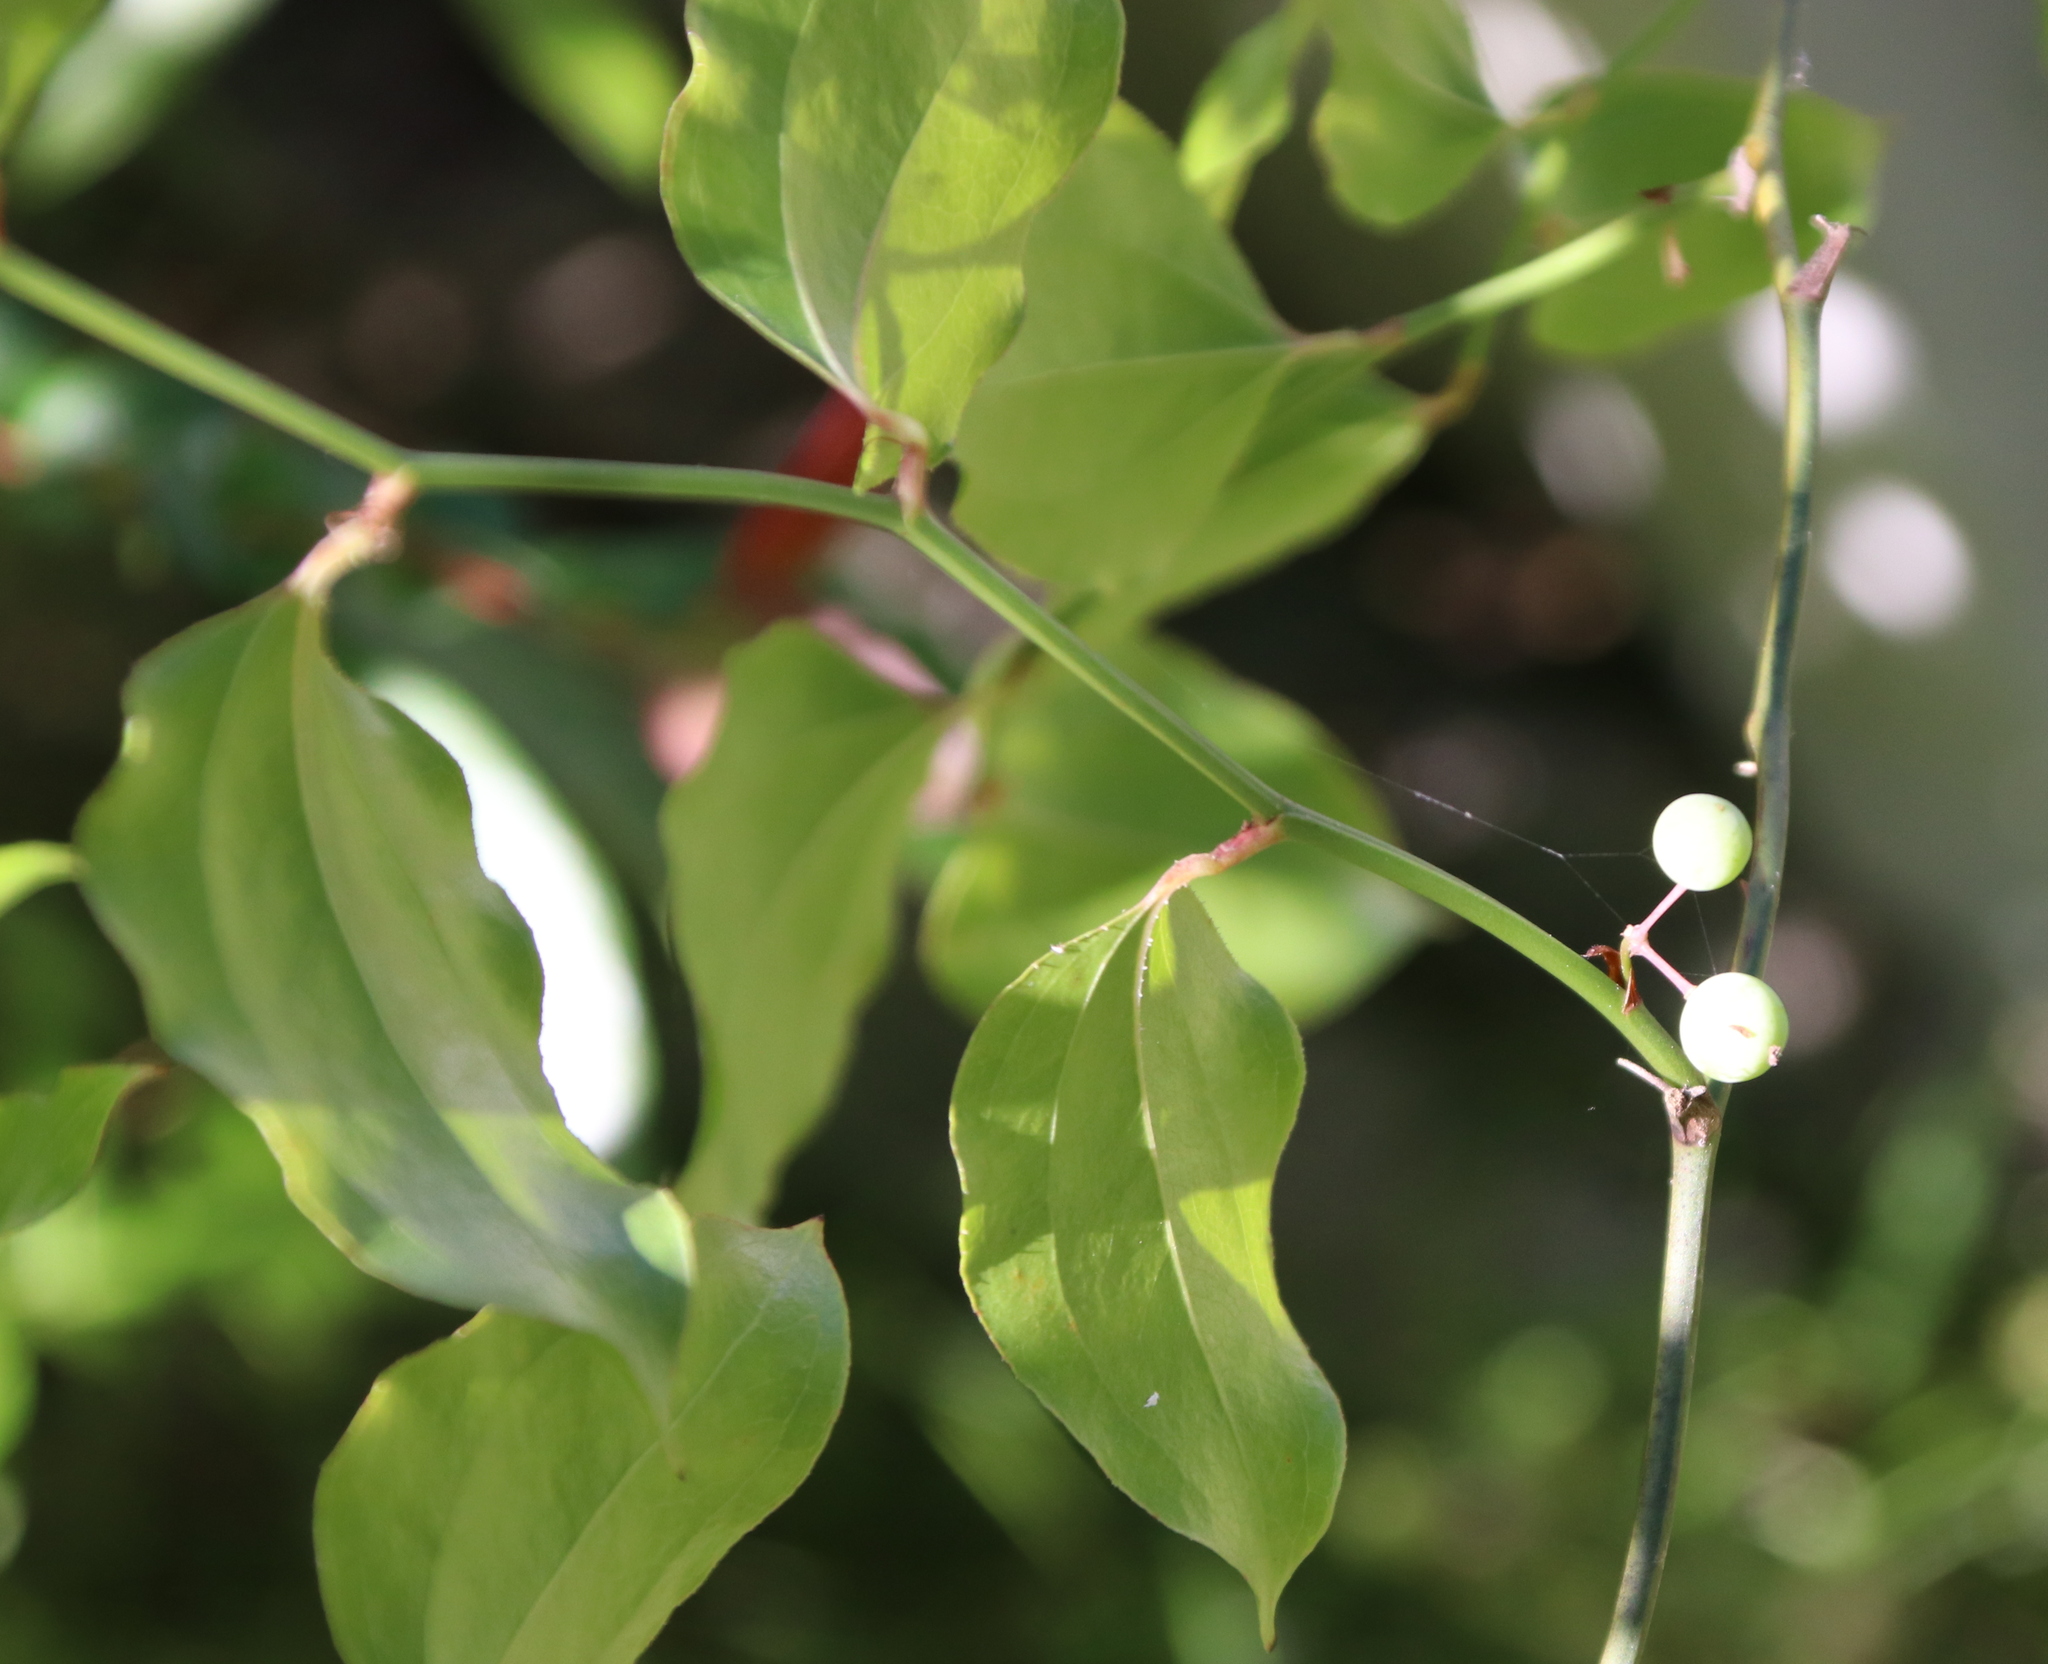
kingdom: Plantae
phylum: Tracheophyta
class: Liliopsida
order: Liliales
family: Smilacaceae
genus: Smilax
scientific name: Smilax rotundifolia
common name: Bullbriar
